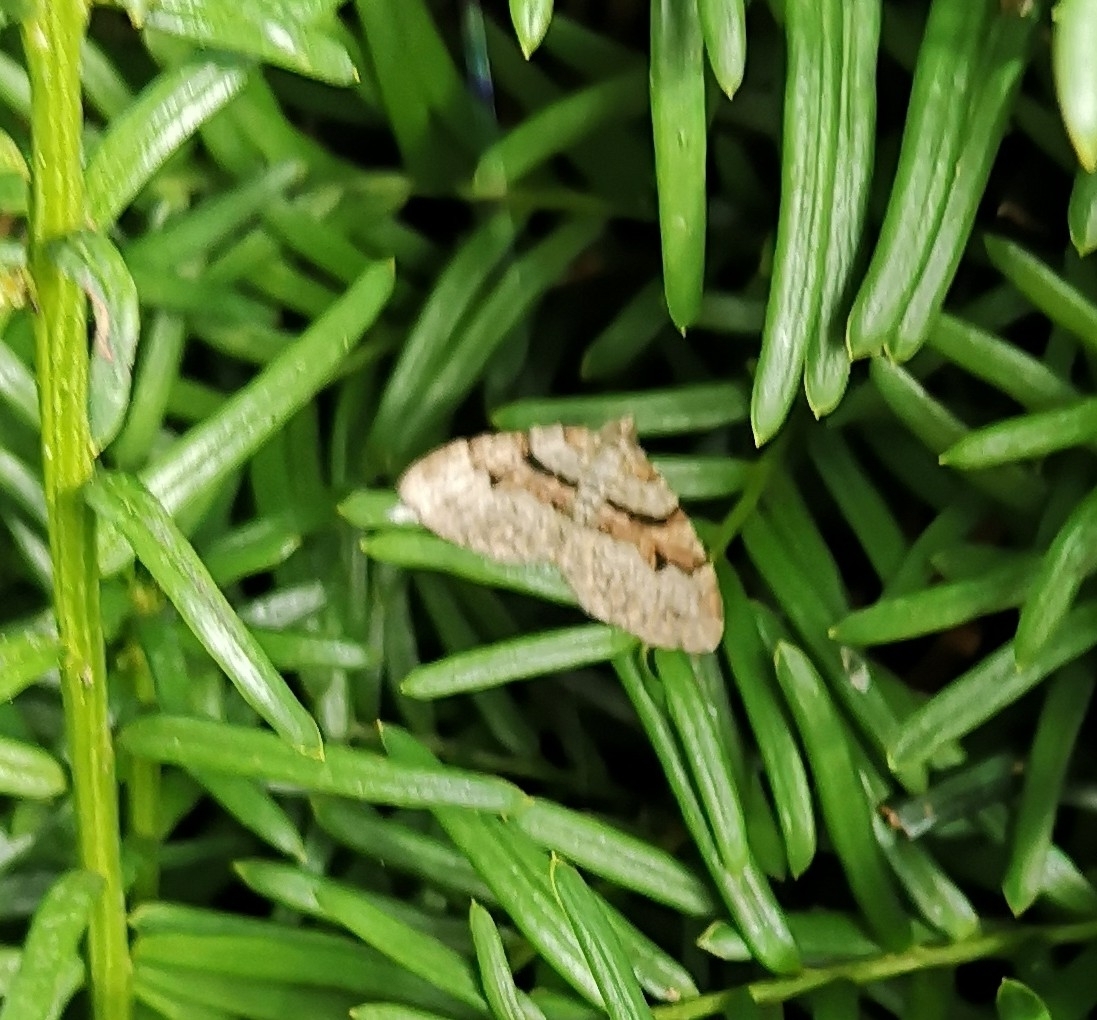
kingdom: Animalia
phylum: Arthropoda
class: Insecta
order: Lepidoptera
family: Geometridae
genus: Xanthorhoe
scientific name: Xanthorhoe designata
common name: Flame carpet
